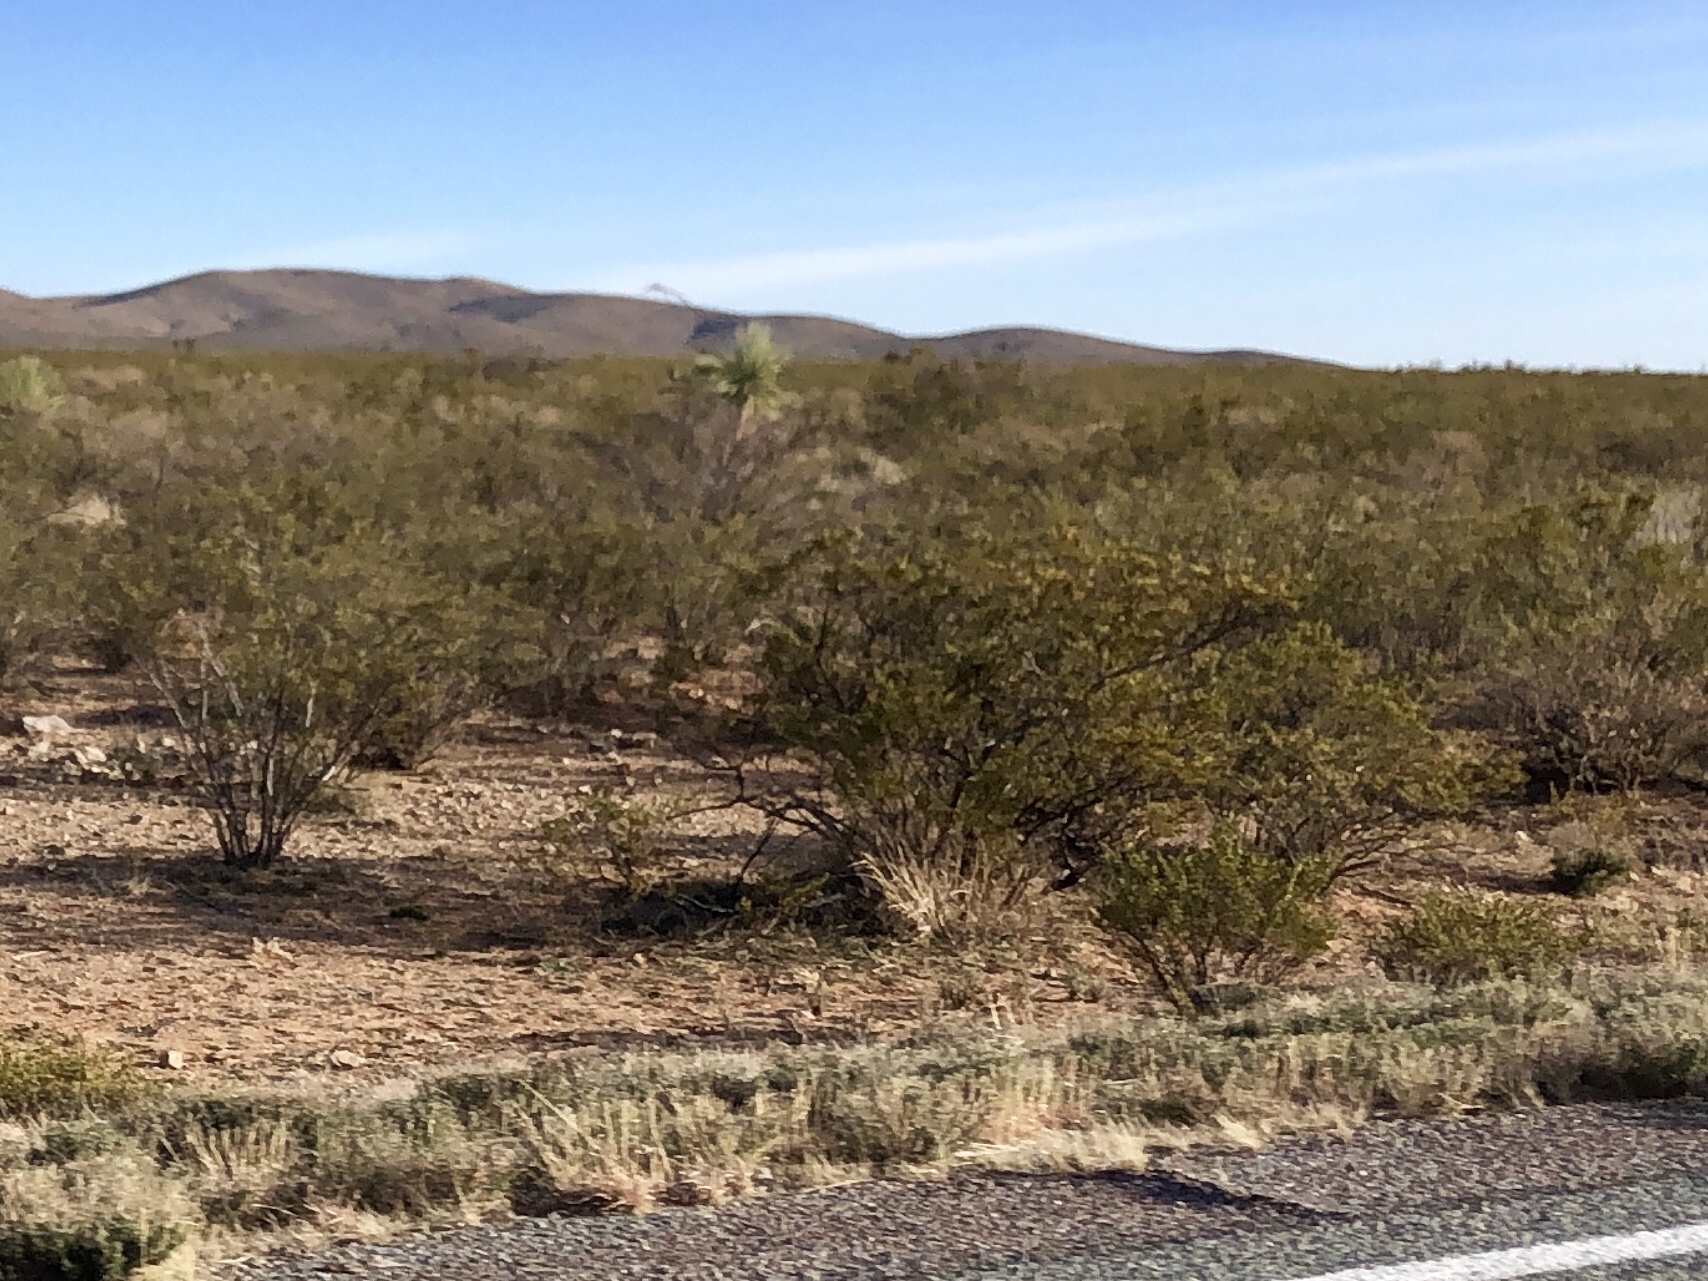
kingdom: Plantae
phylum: Tracheophyta
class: Magnoliopsida
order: Zygophyllales
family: Zygophyllaceae
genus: Larrea
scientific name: Larrea tridentata
